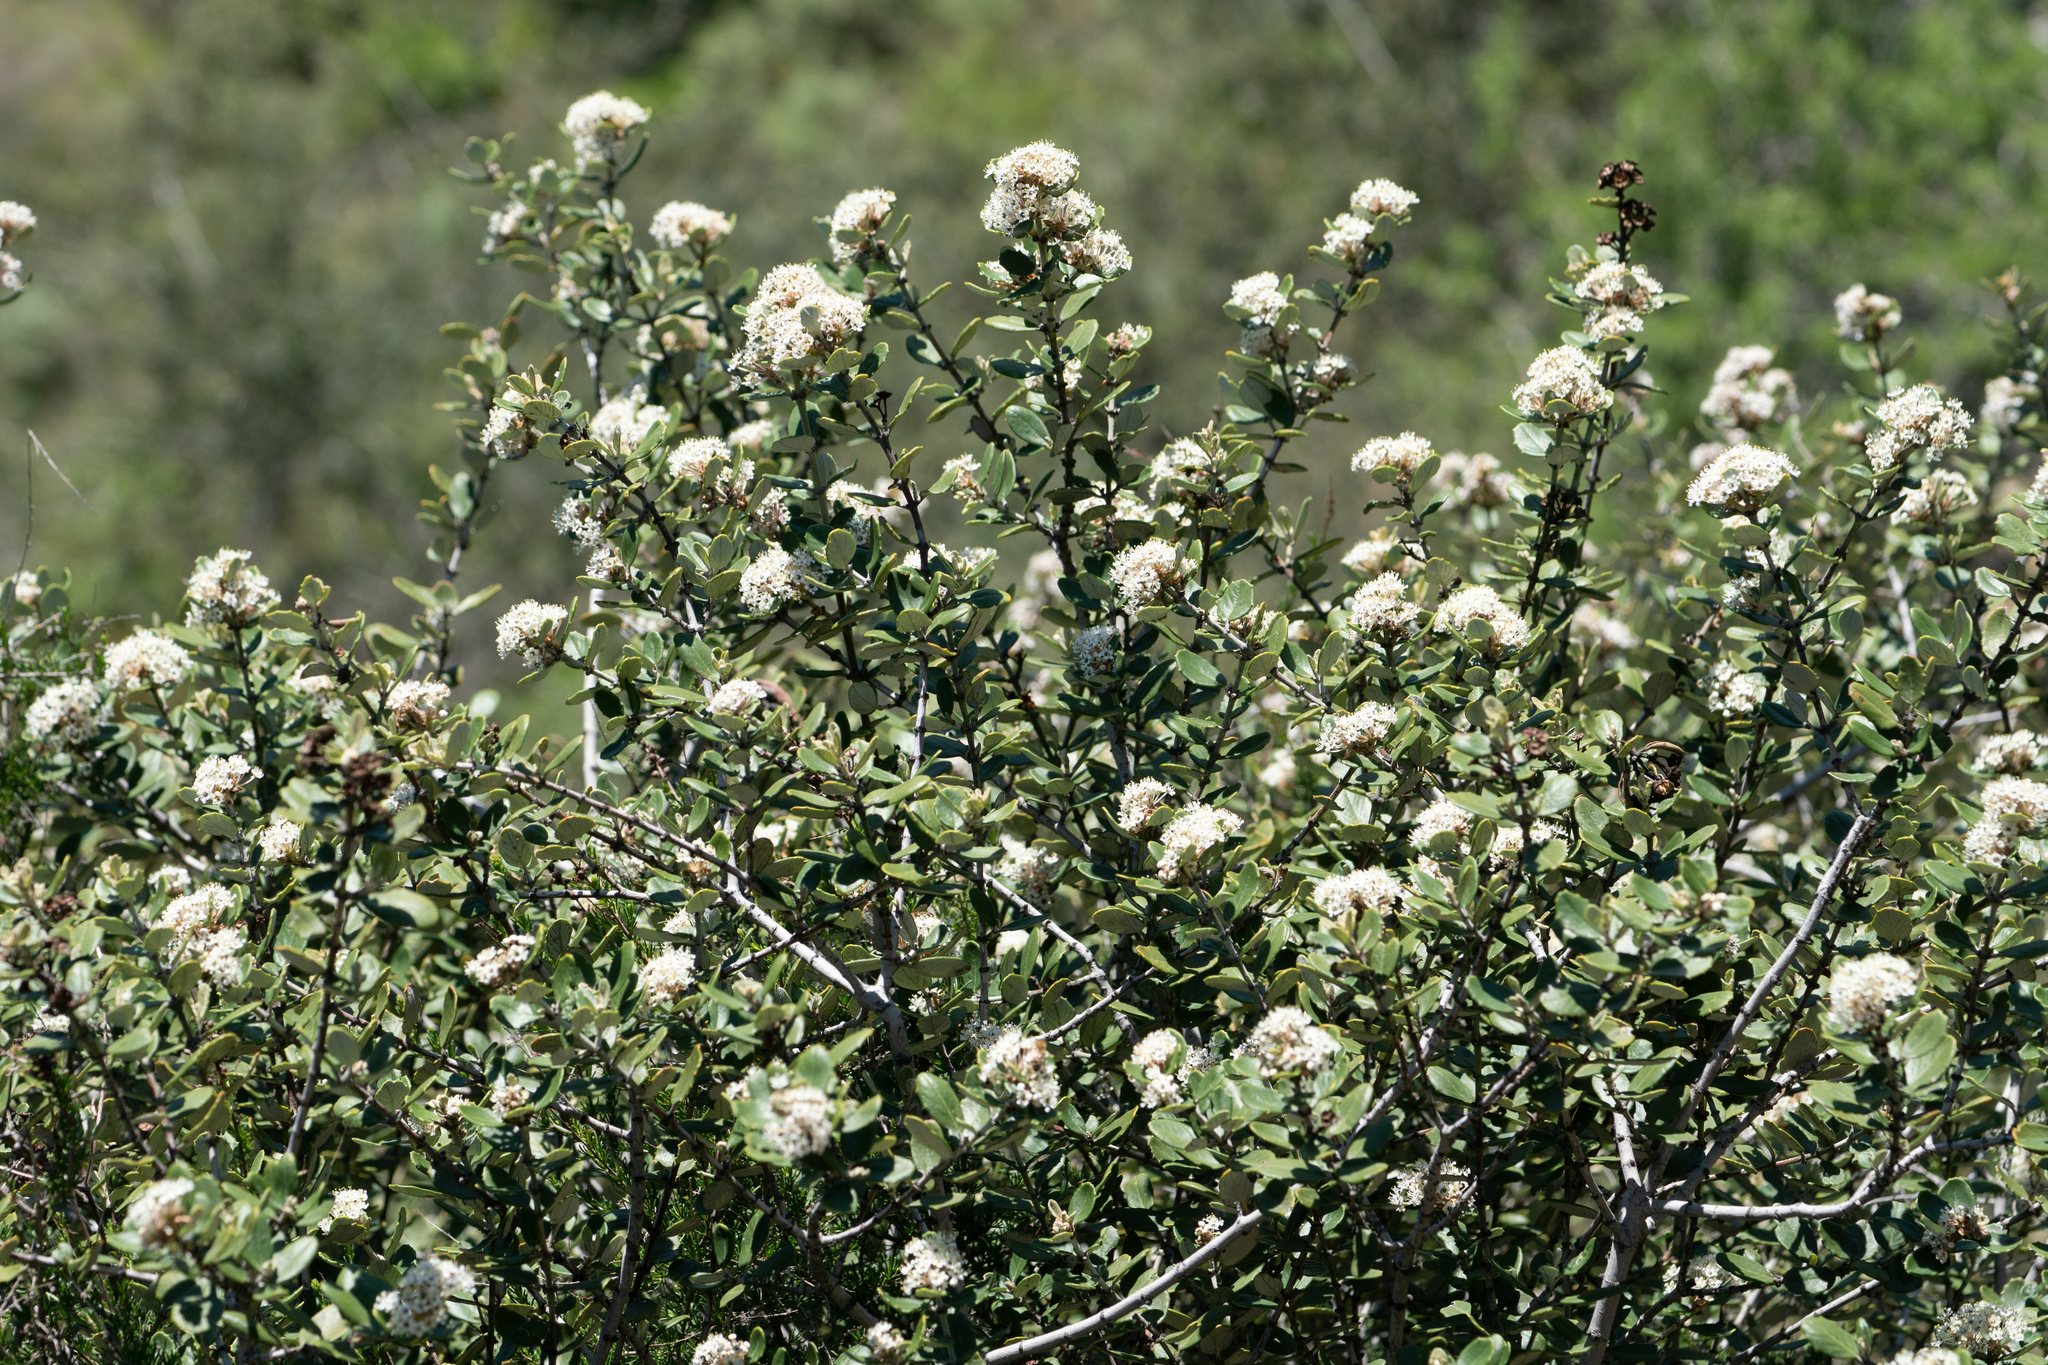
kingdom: Plantae
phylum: Tracheophyta
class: Magnoliopsida
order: Rosales
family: Rhamnaceae
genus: Ceanothus
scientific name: Ceanothus crassifolius
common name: Hoaryleaf ceanothus
